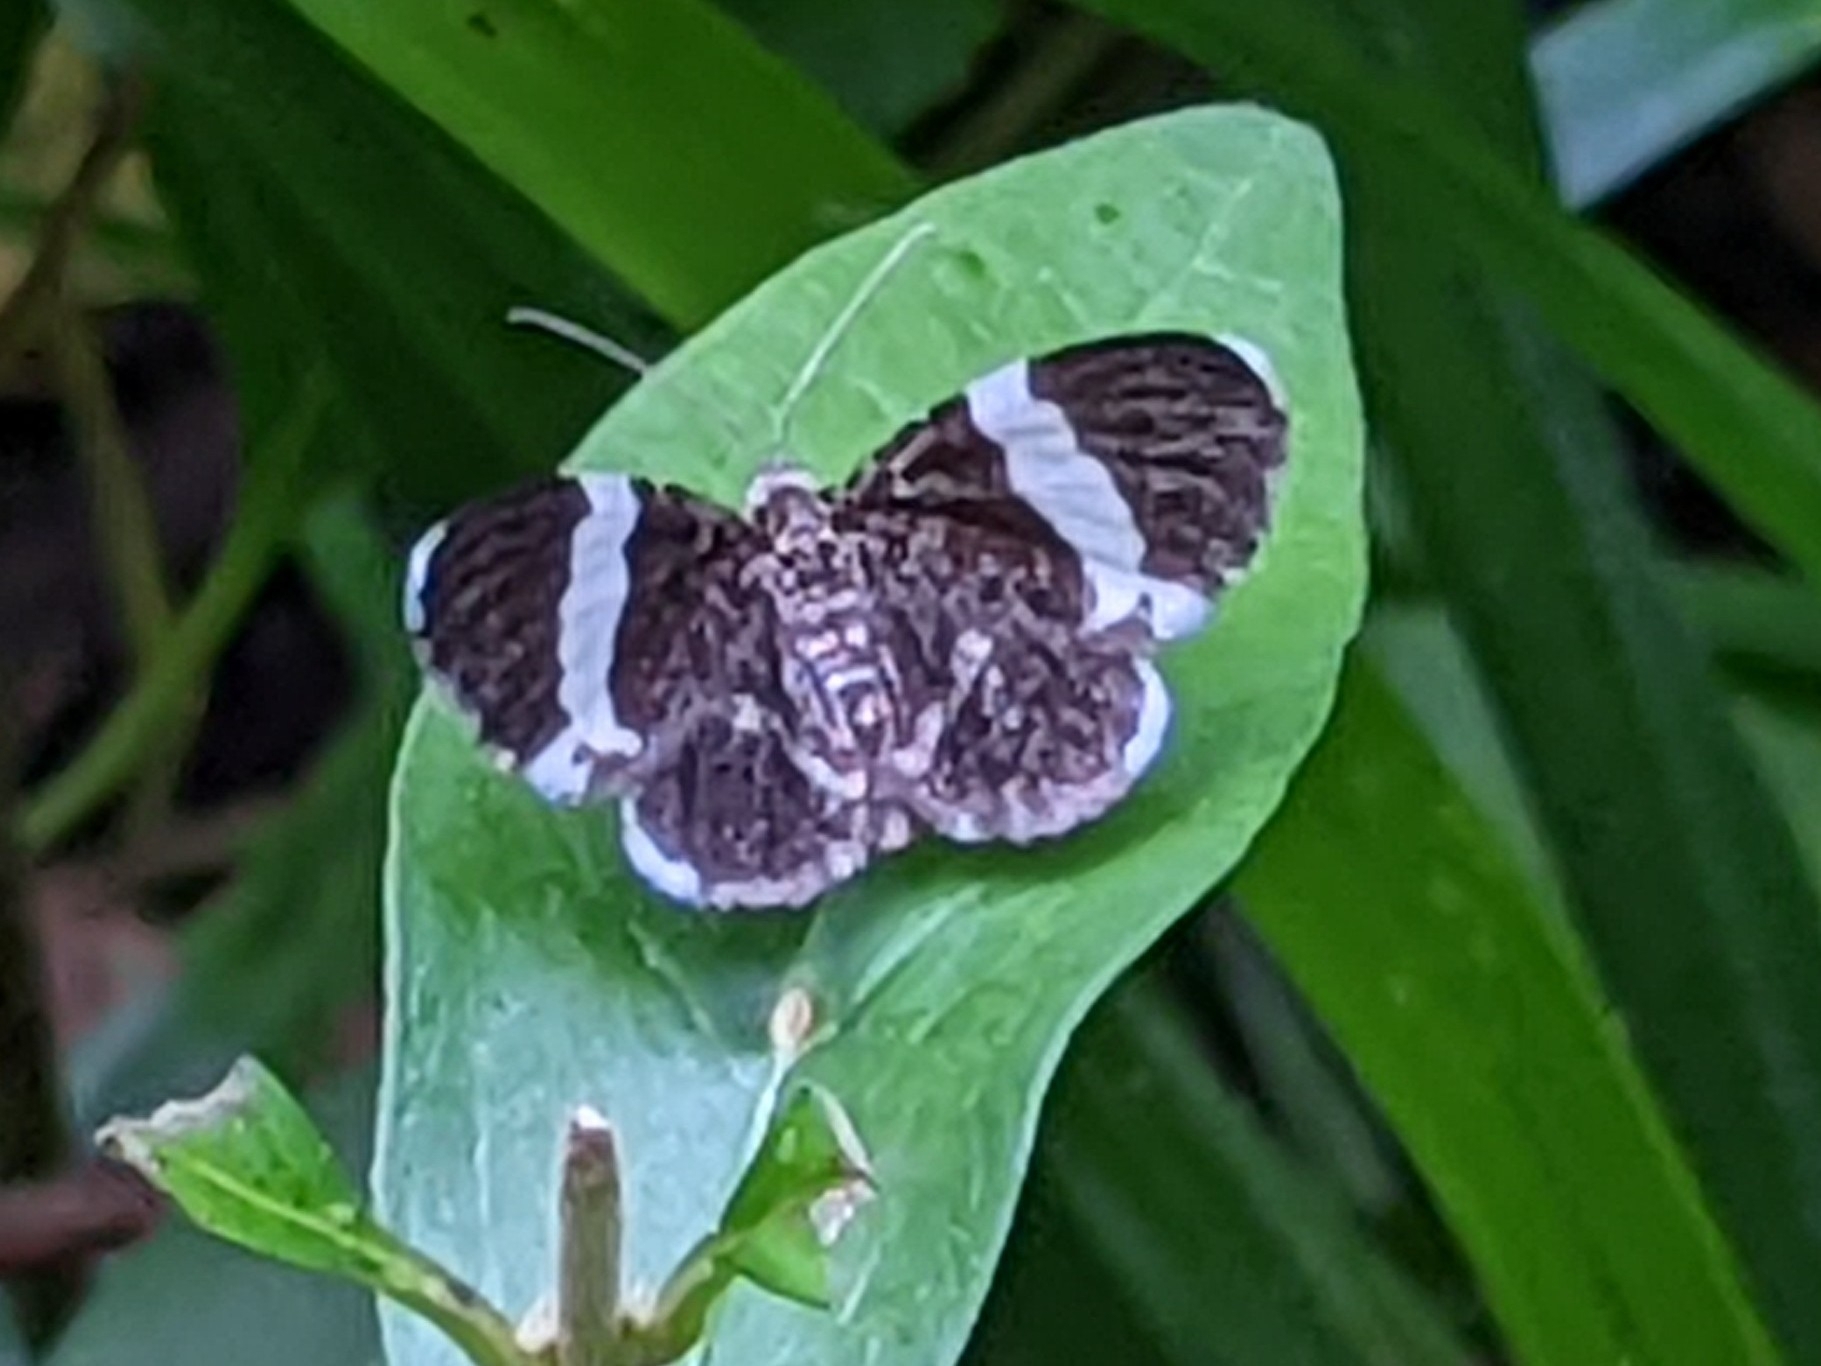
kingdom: Animalia
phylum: Arthropoda
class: Insecta
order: Lepidoptera
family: Geometridae
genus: Trichodezia
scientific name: Trichodezia albovittata
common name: White striped black
